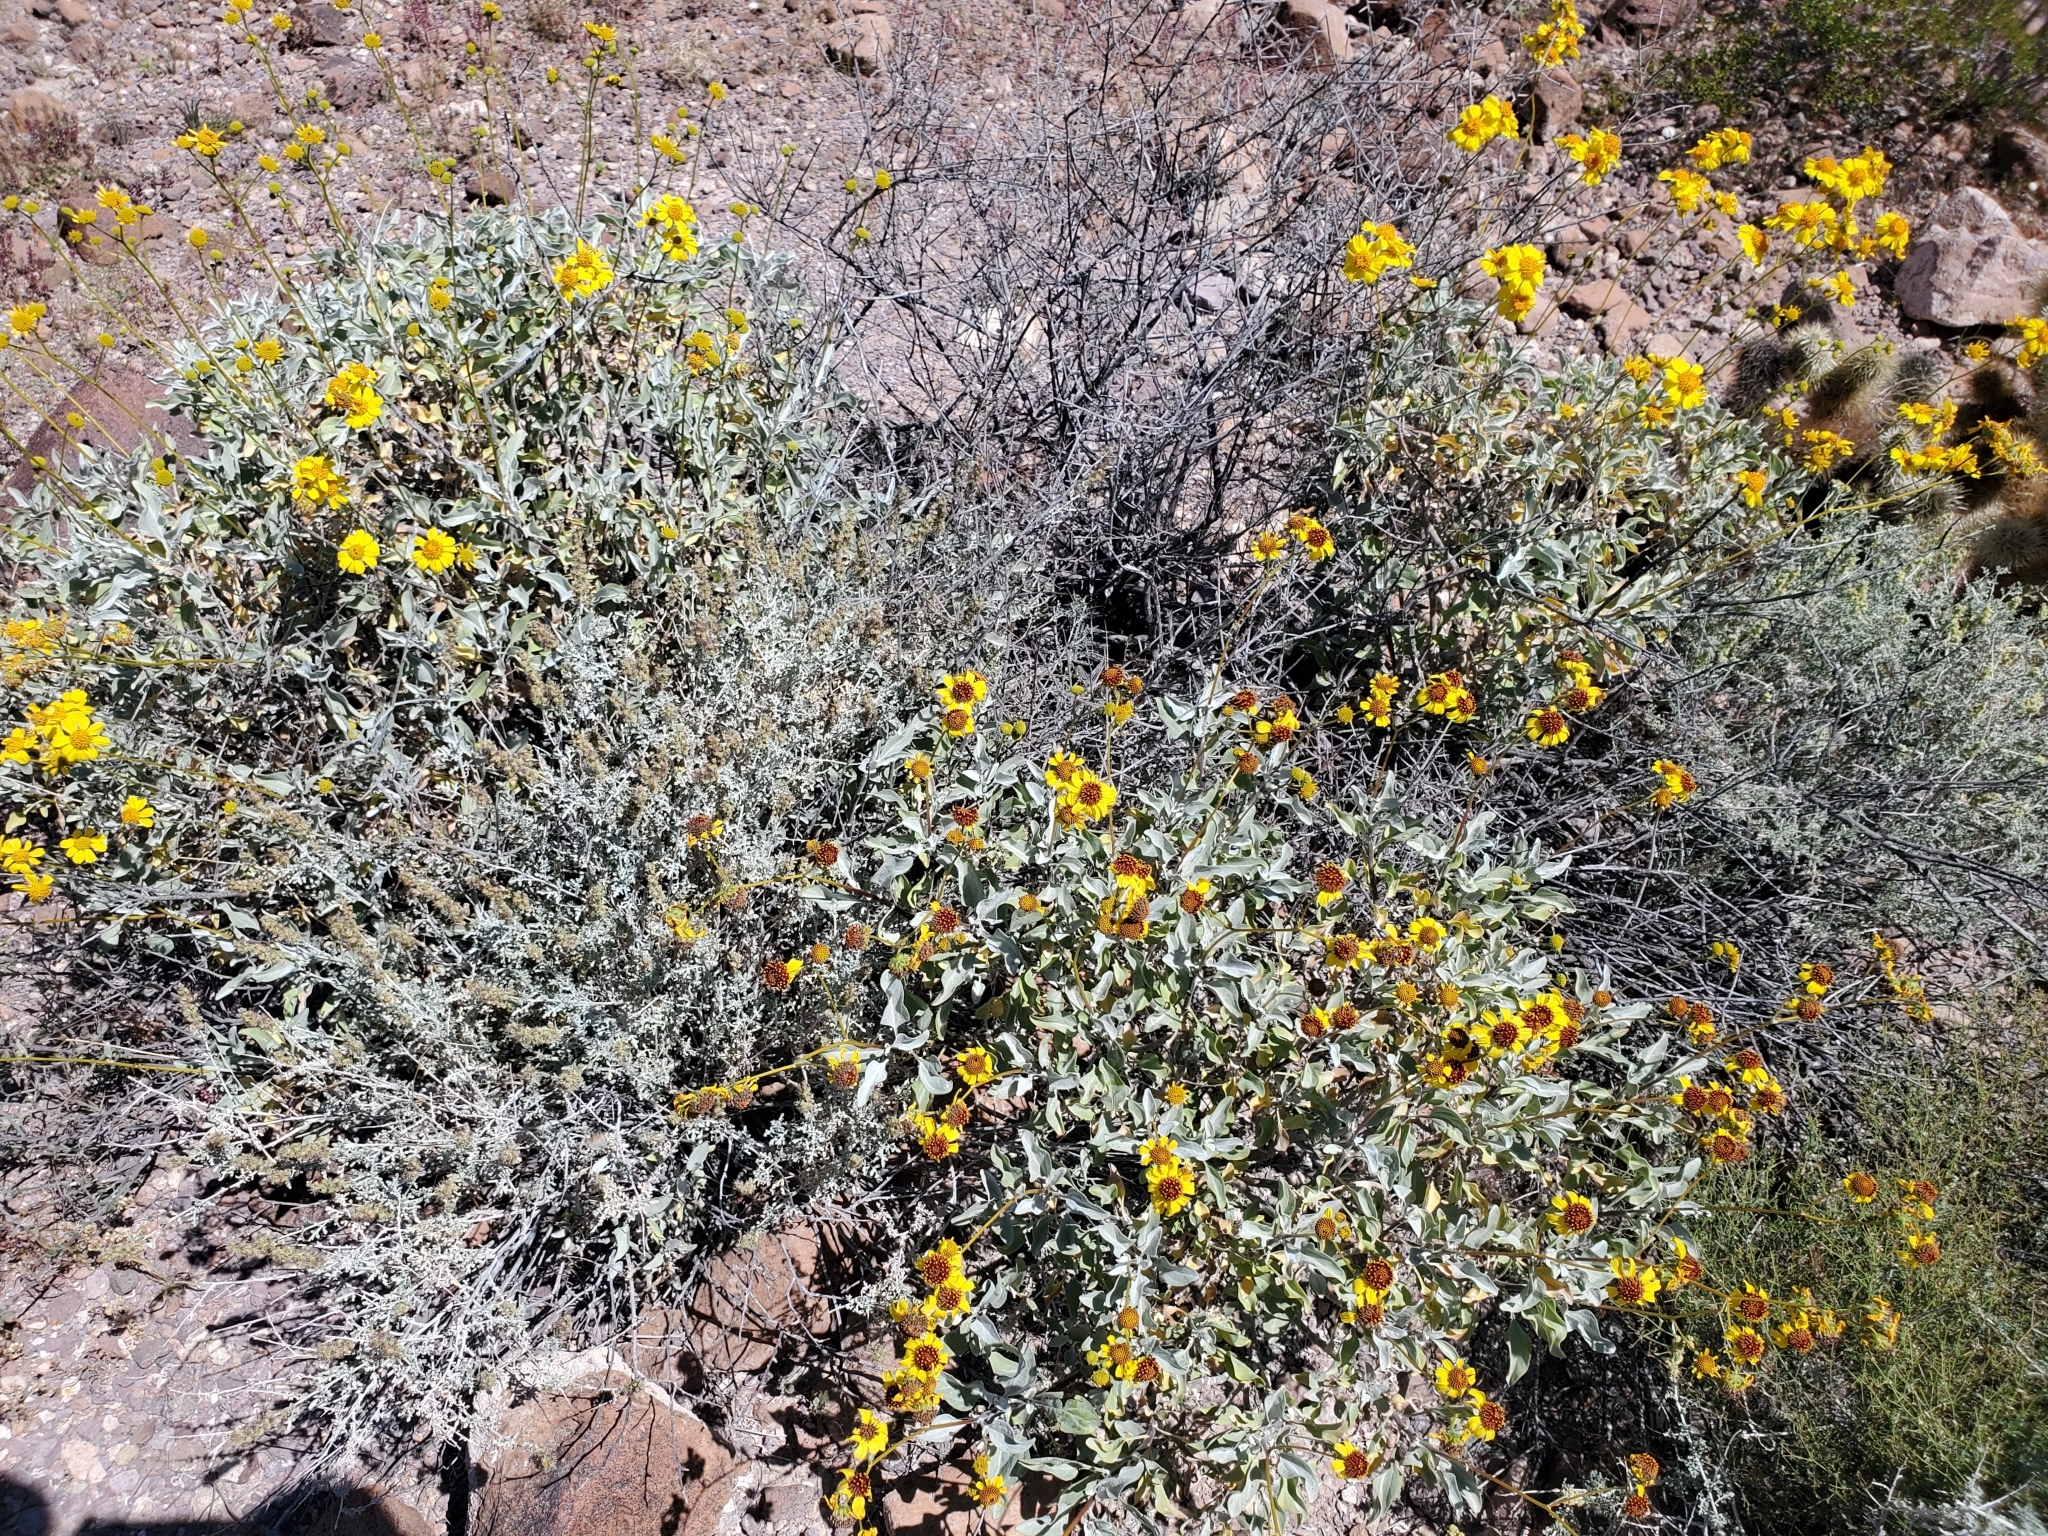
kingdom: Plantae
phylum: Tracheophyta
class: Magnoliopsida
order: Asterales
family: Asteraceae
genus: Encelia
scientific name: Encelia farinosa
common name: Brittlebush
